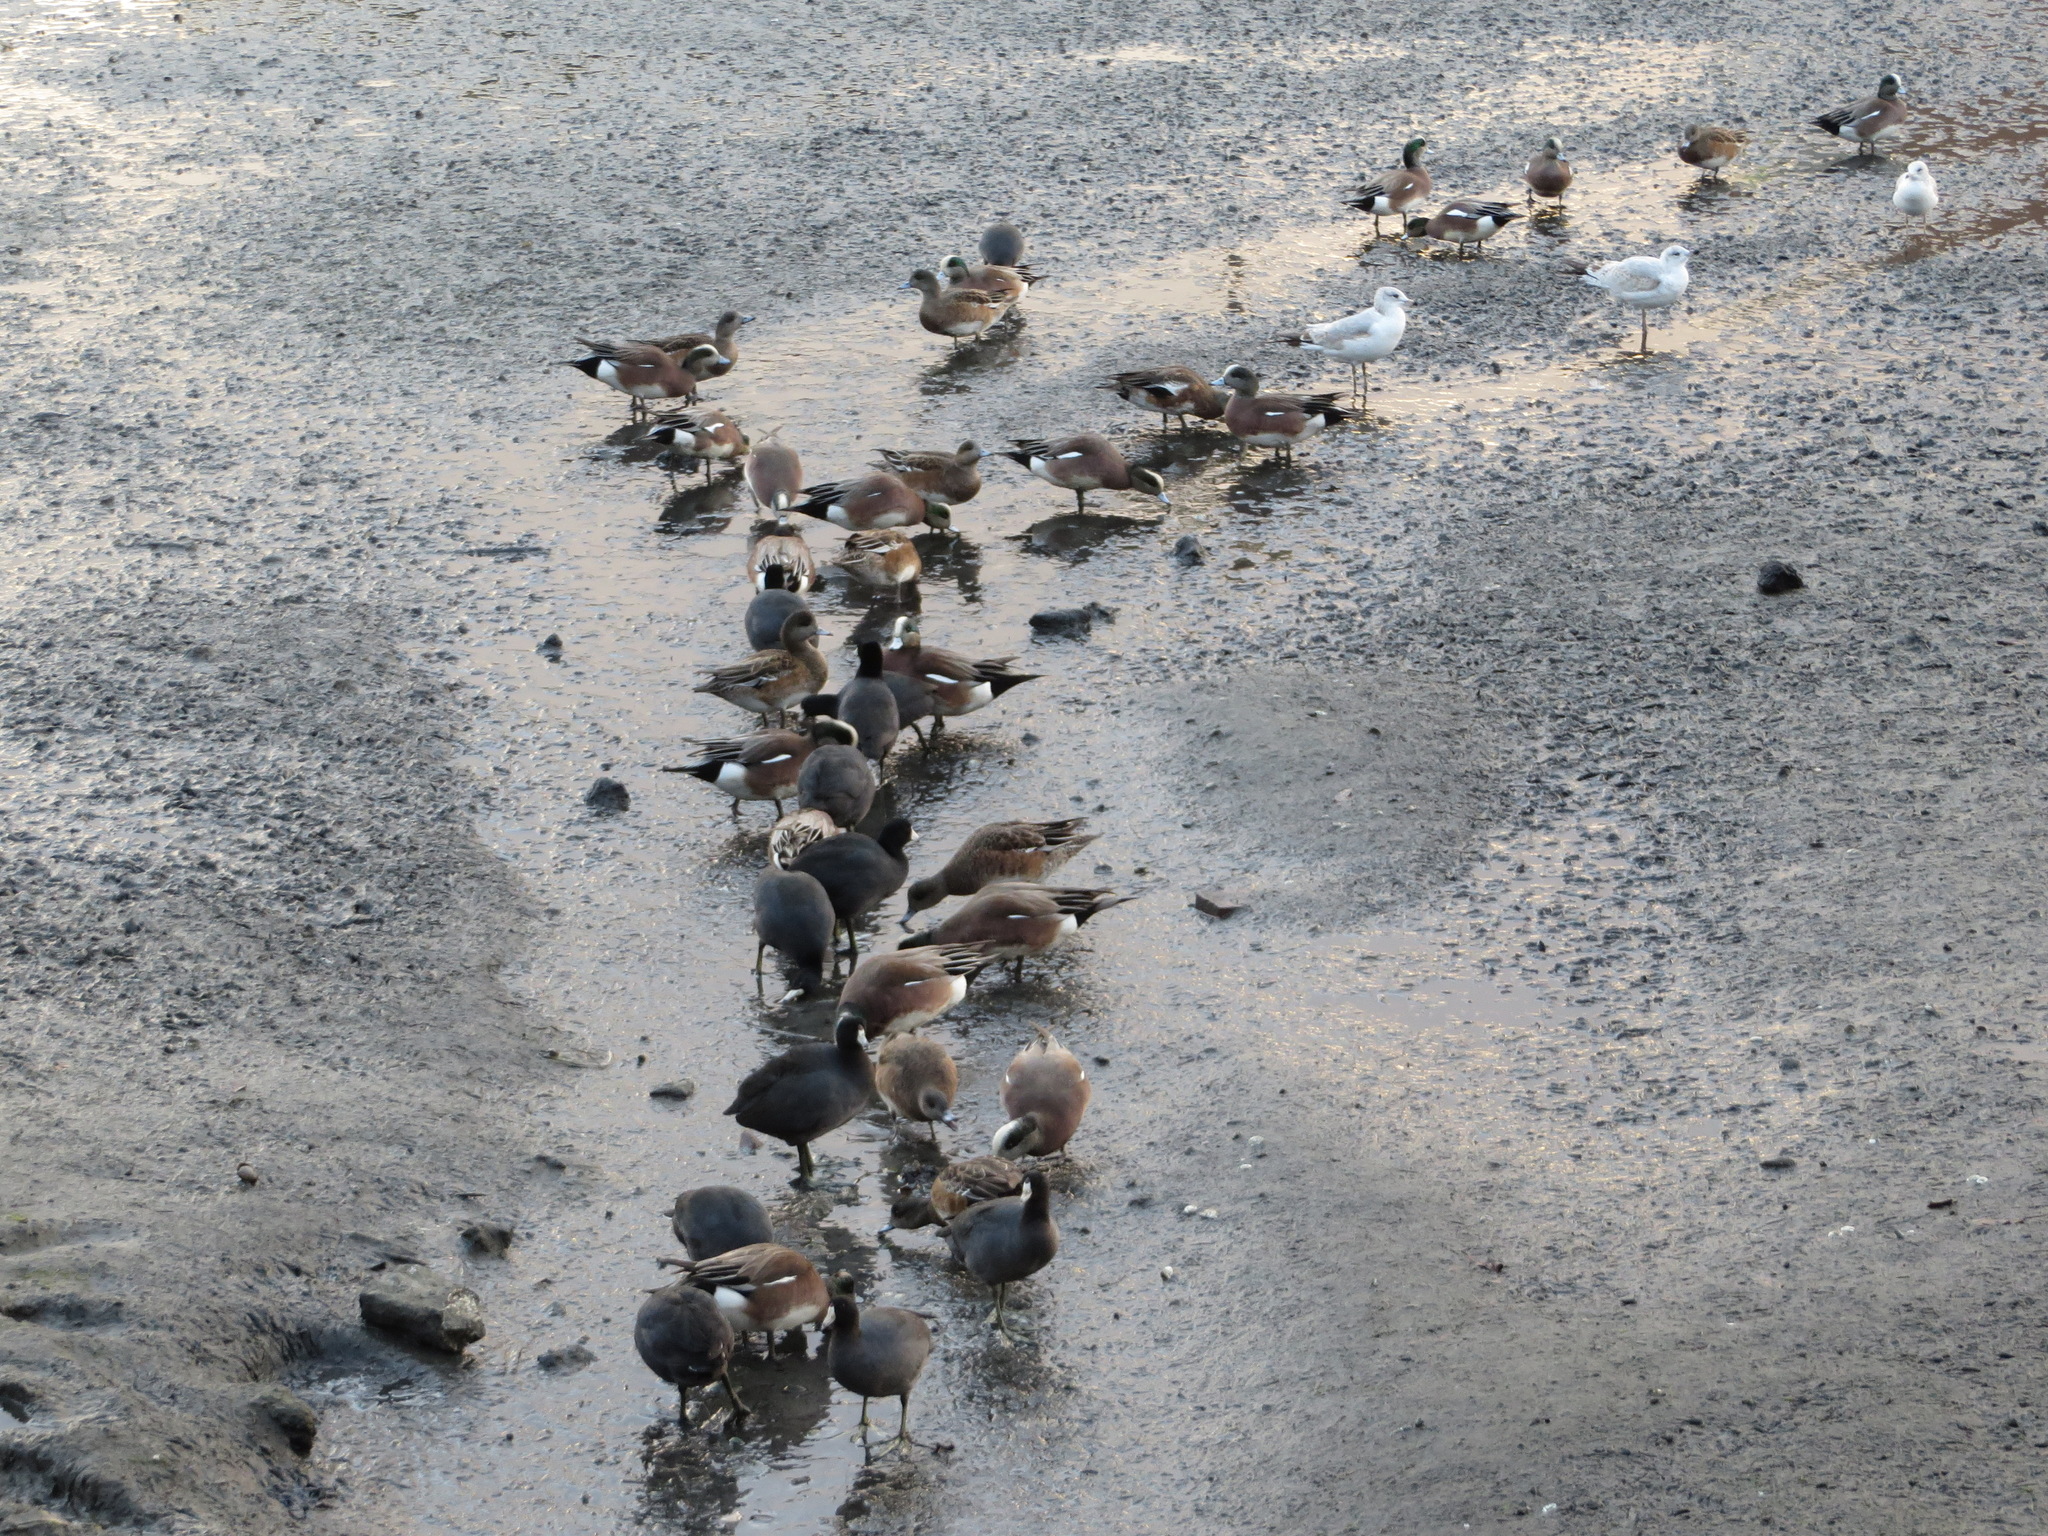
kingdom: Animalia
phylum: Chordata
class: Aves
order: Anseriformes
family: Anatidae
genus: Mareca
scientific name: Mareca americana
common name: American wigeon
